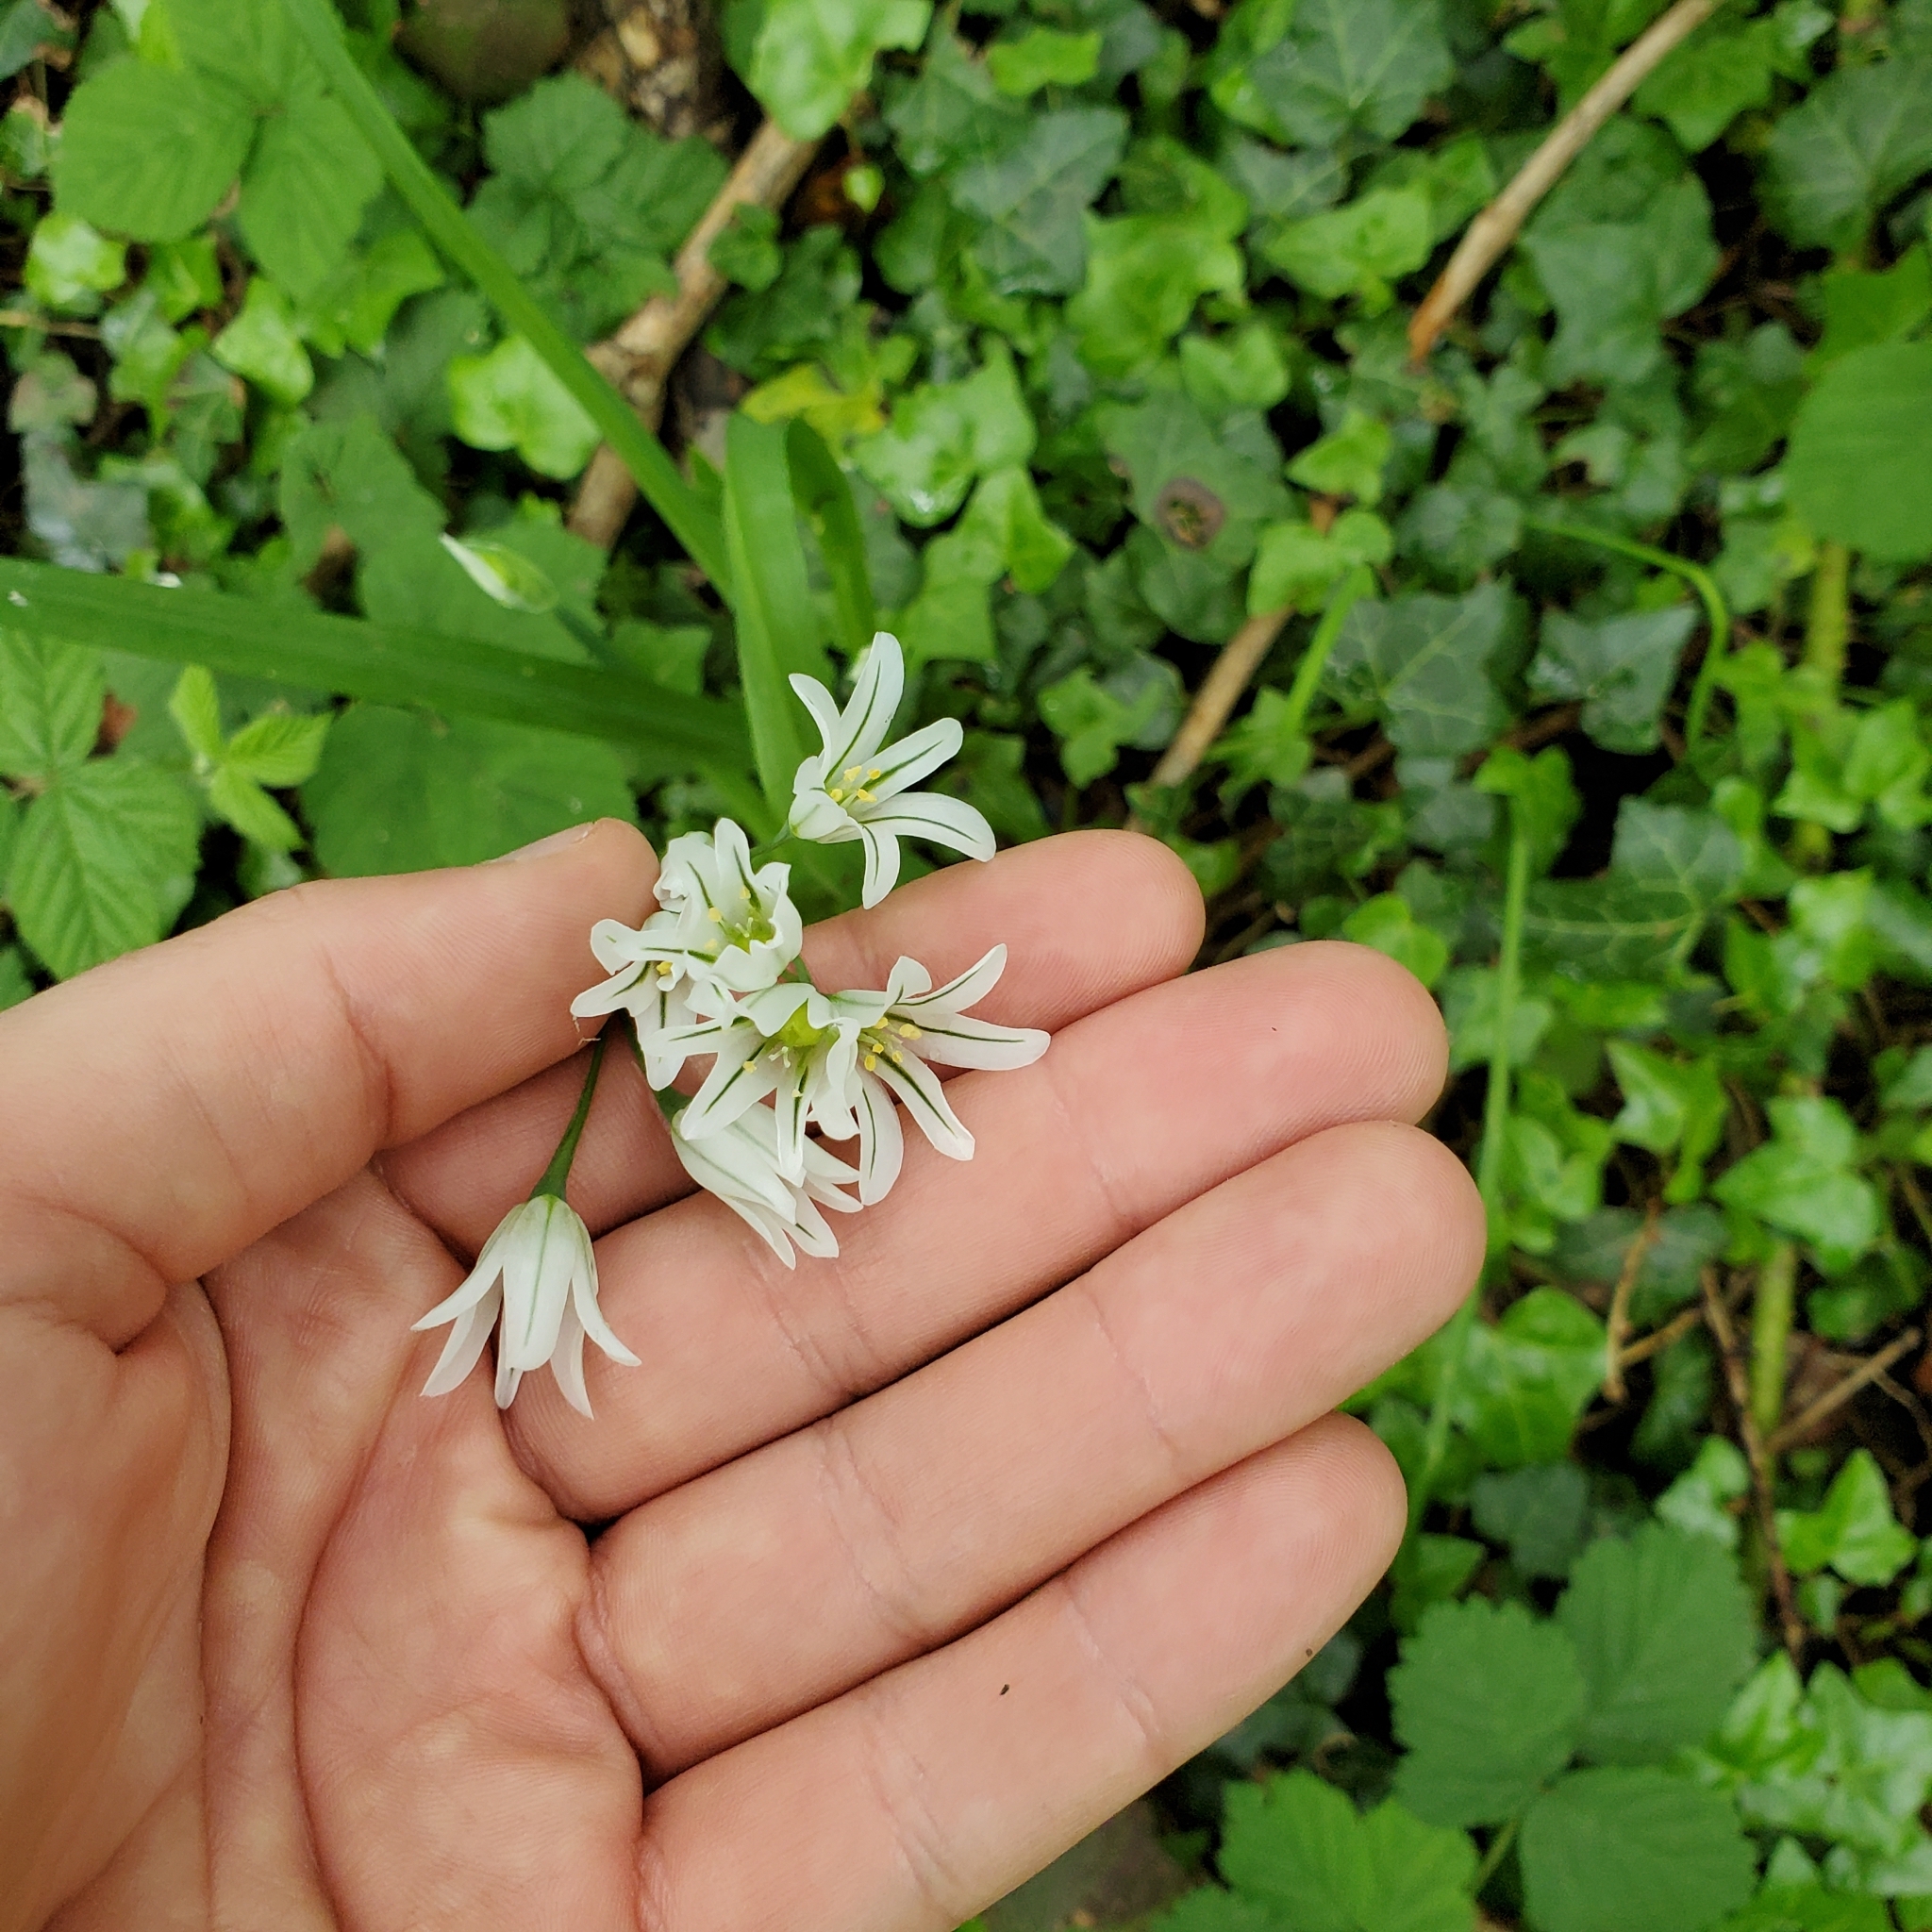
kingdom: Plantae
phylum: Tracheophyta
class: Liliopsida
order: Asparagales
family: Amaryllidaceae
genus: Allium
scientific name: Allium triquetrum
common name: Three-cornered garlic
